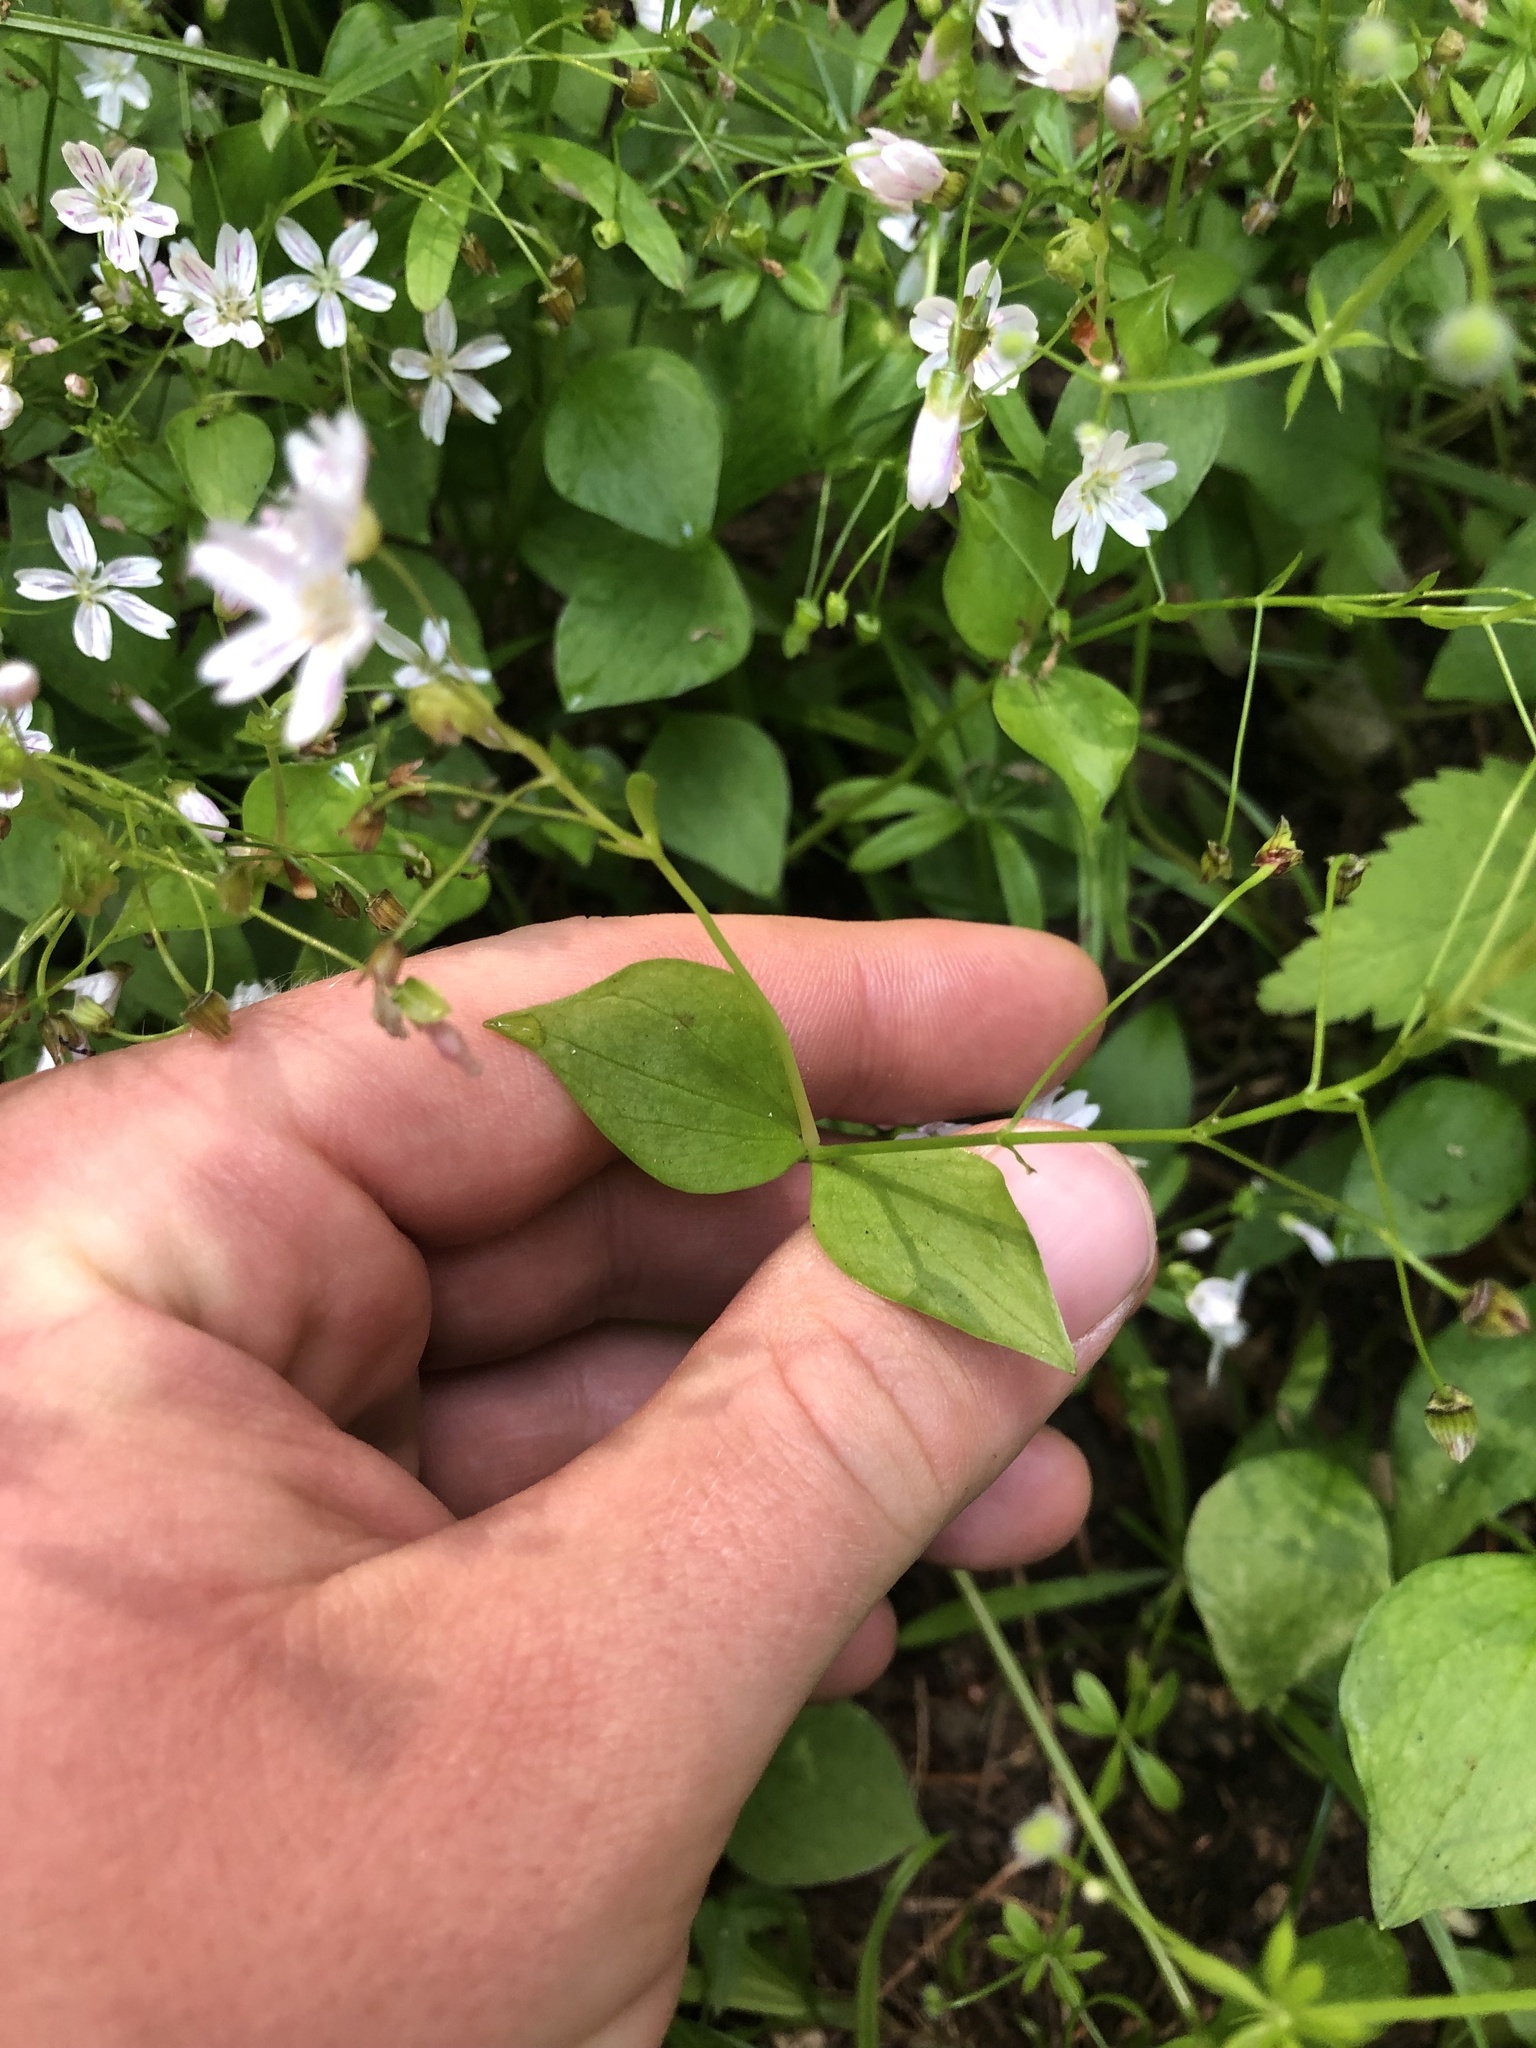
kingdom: Plantae
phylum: Tracheophyta
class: Magnoliopsida
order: Caryophyllales
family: Montiaceae
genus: Claytonia
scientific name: Claytonia sibirica
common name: Pink purslane
